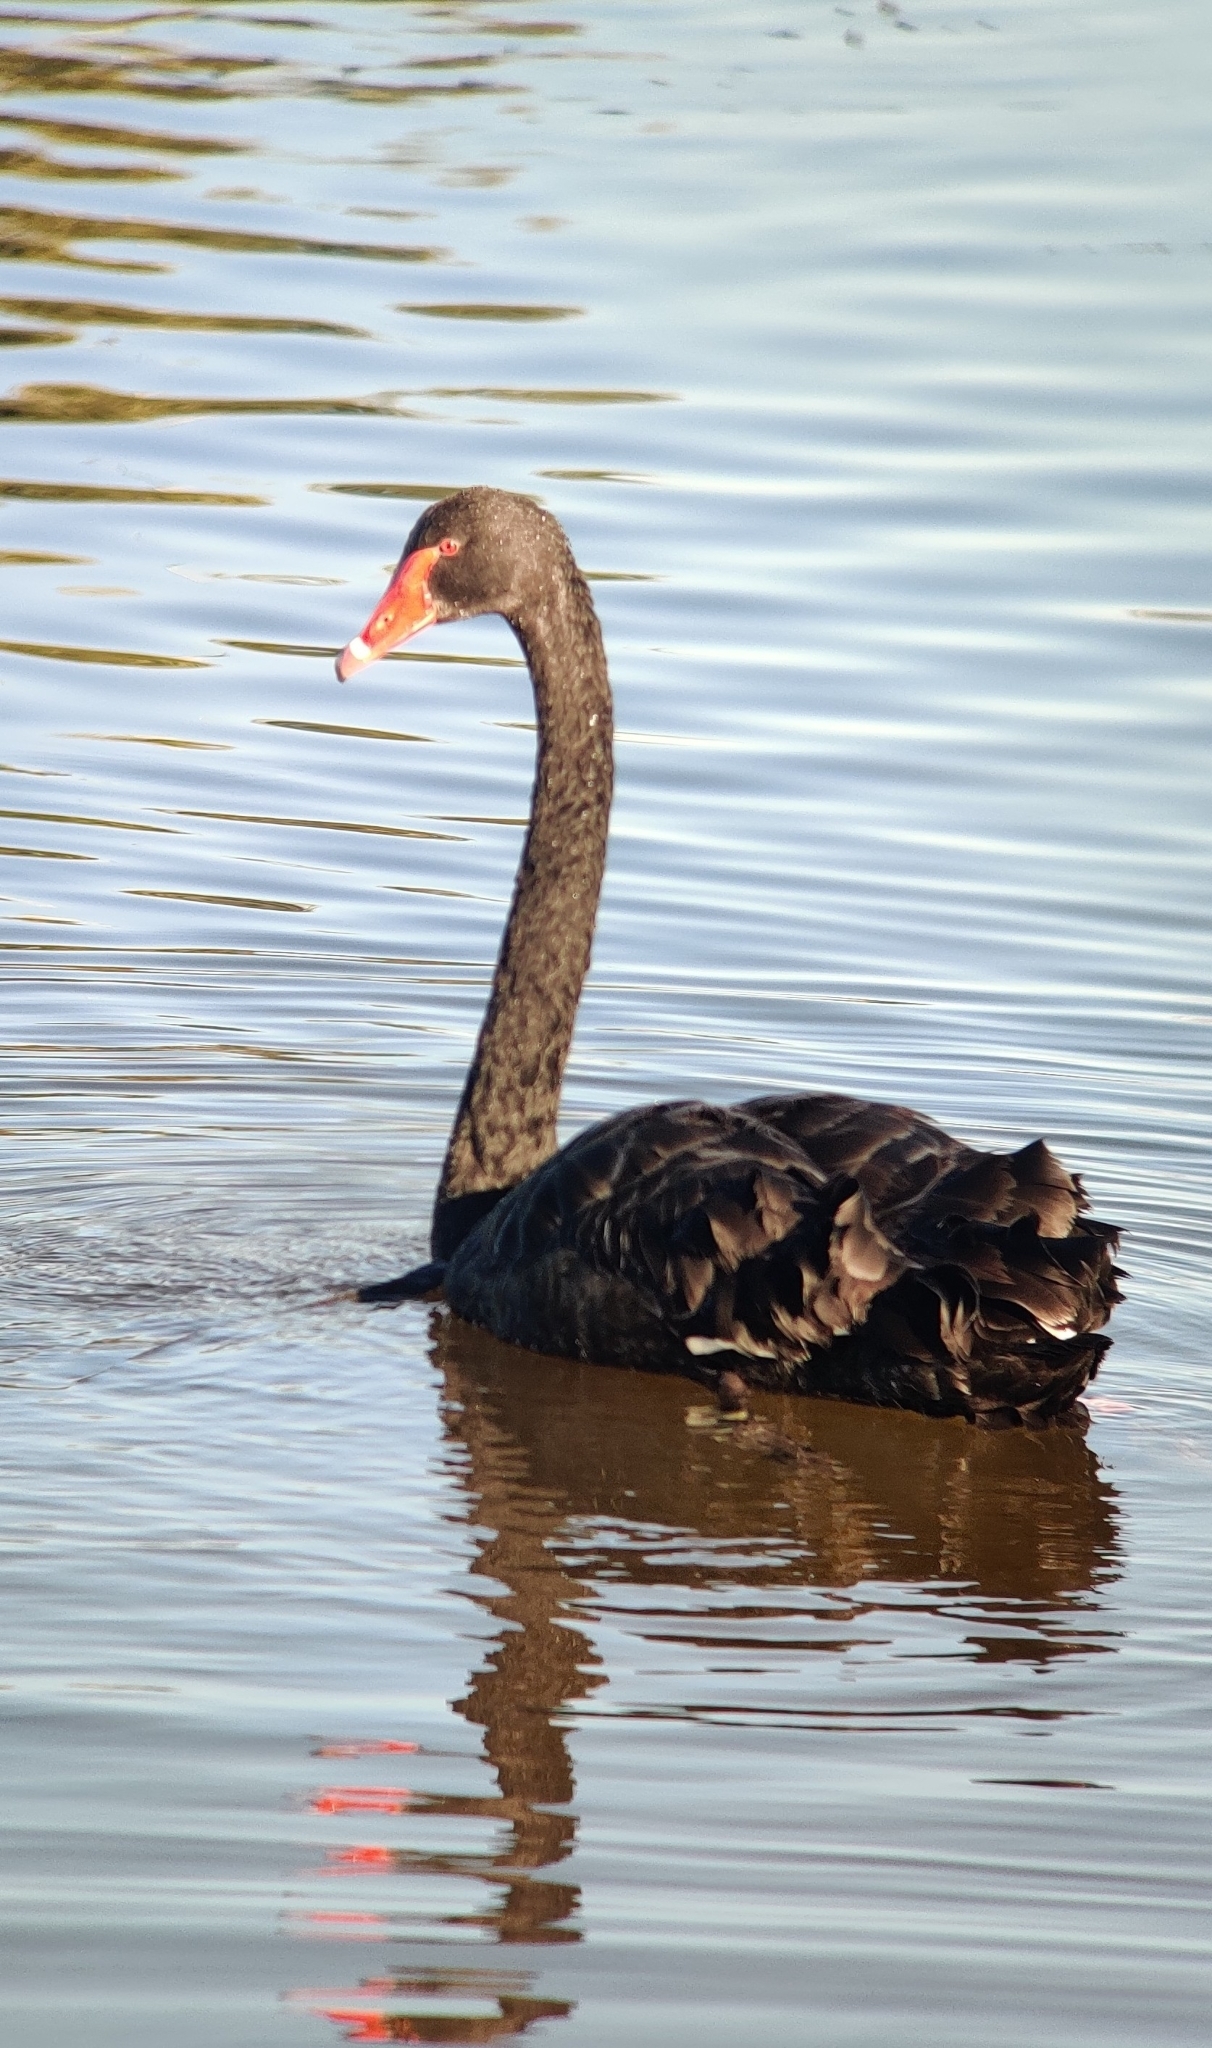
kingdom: Animalia
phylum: Chordata
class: Aves
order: Anseriformes
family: Anatidae
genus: Cygnus
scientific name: Cygnus atratus
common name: Black swan
